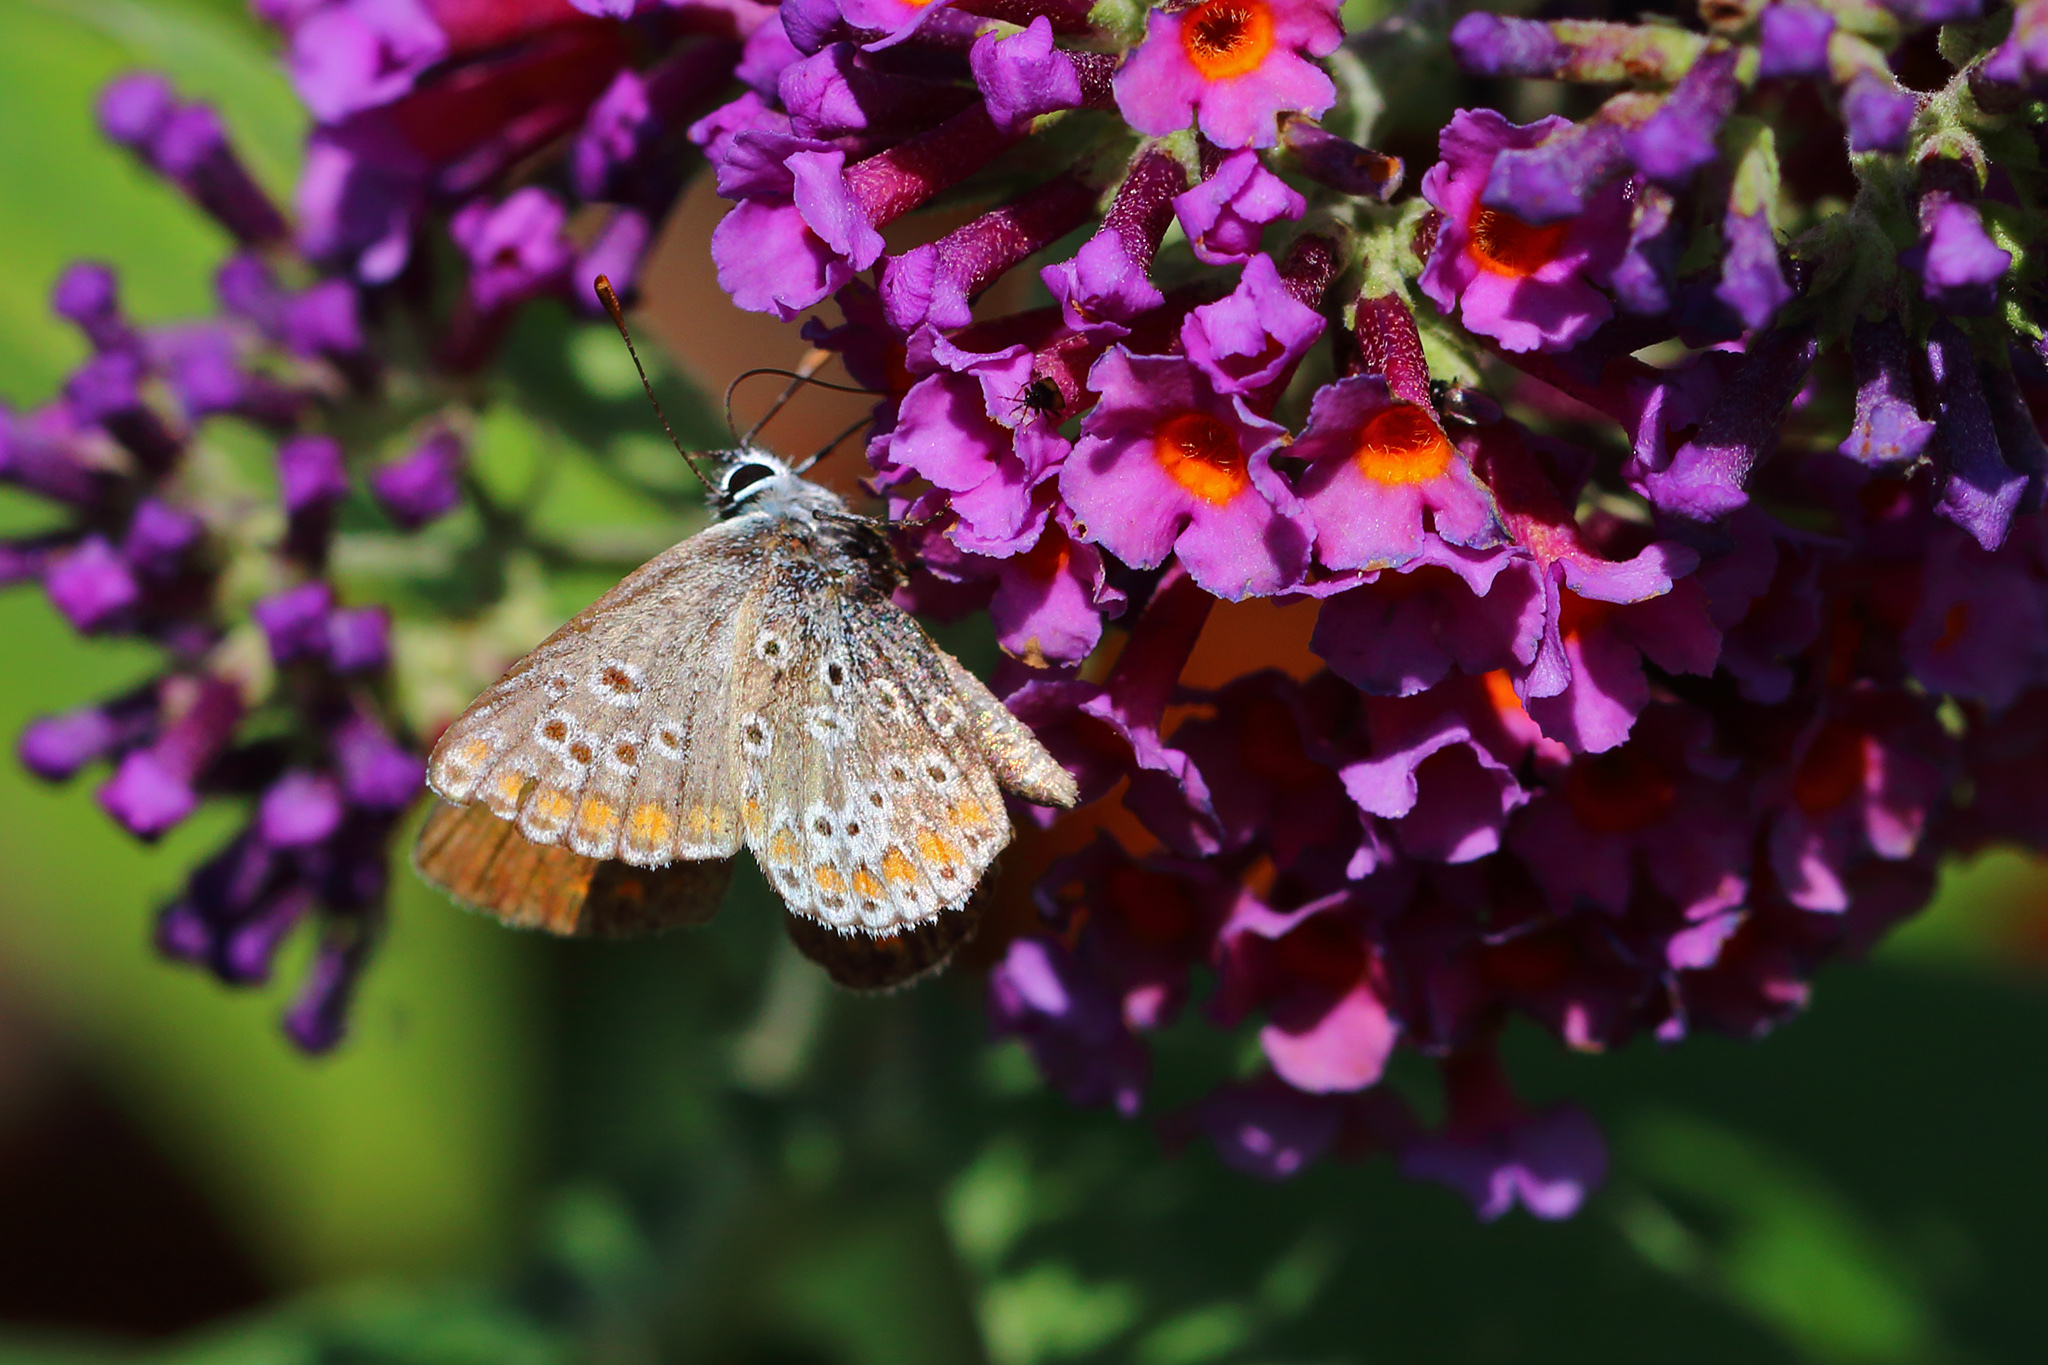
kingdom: Animalia
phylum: Arthropoda
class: Insecta
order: Lepidoptera
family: Lycaenidae
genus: Aricia
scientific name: Aricia agestis
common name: Brown argus
